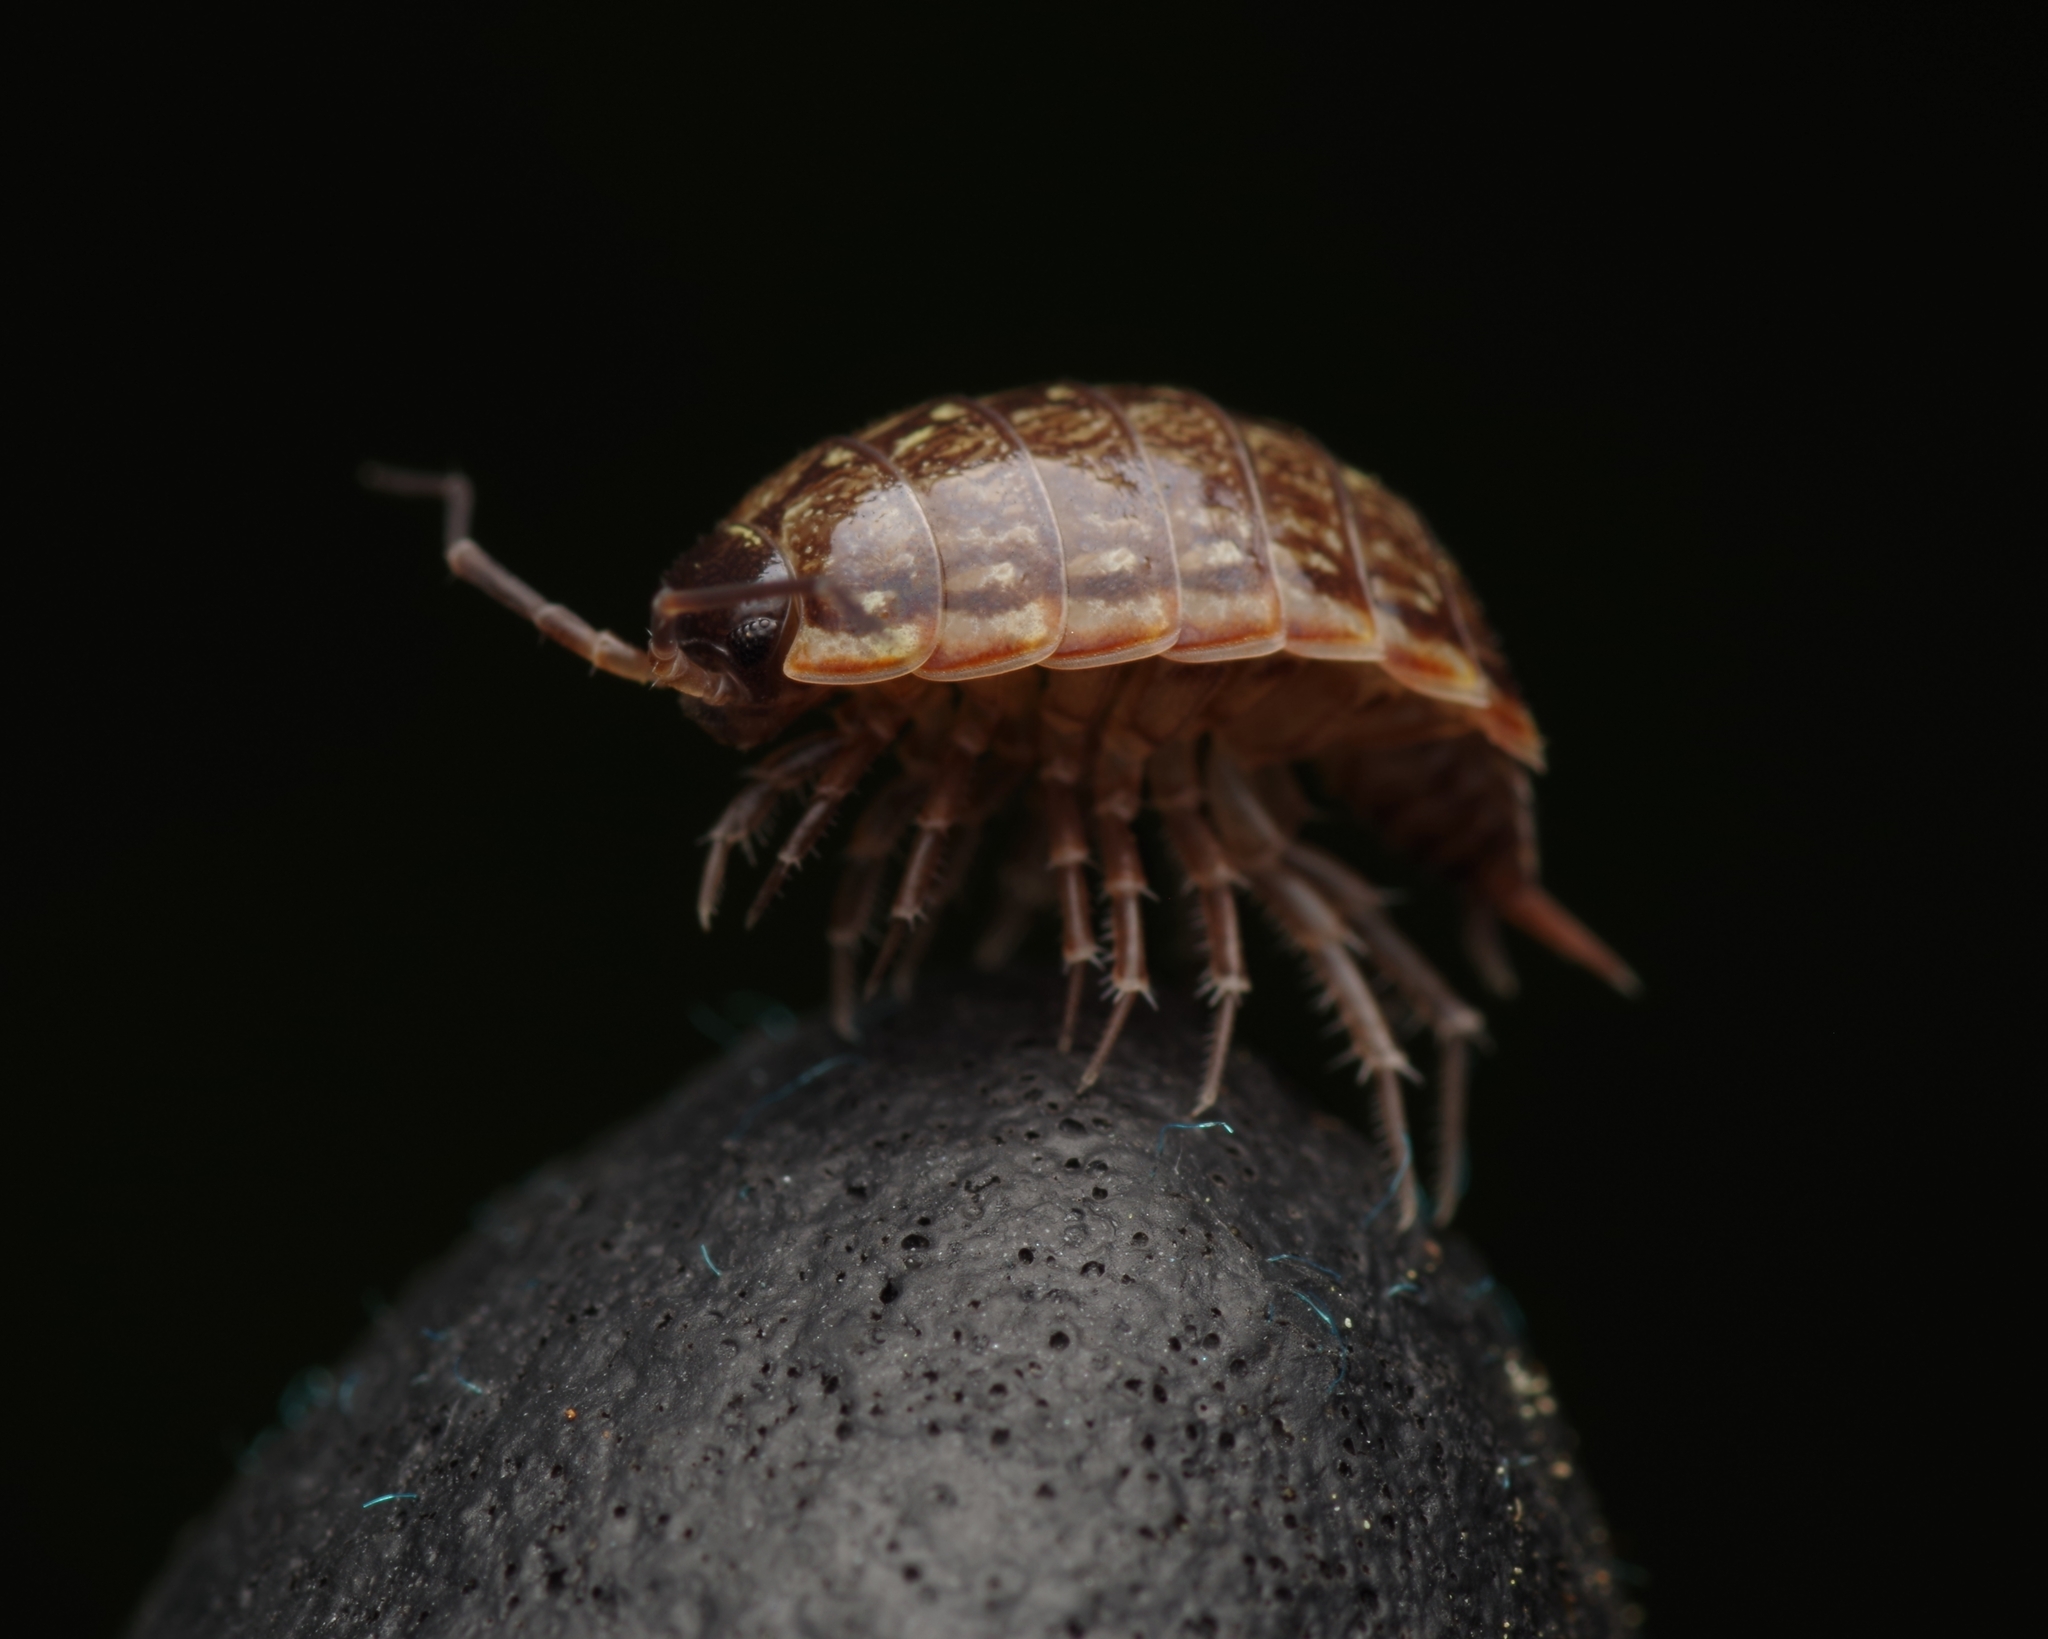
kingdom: Animalia
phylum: Arthropoda
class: Malacostraca
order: Isopoda
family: Philosciidae
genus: Philoscia
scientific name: Philoscia muscorum
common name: Common striped woodlouse
